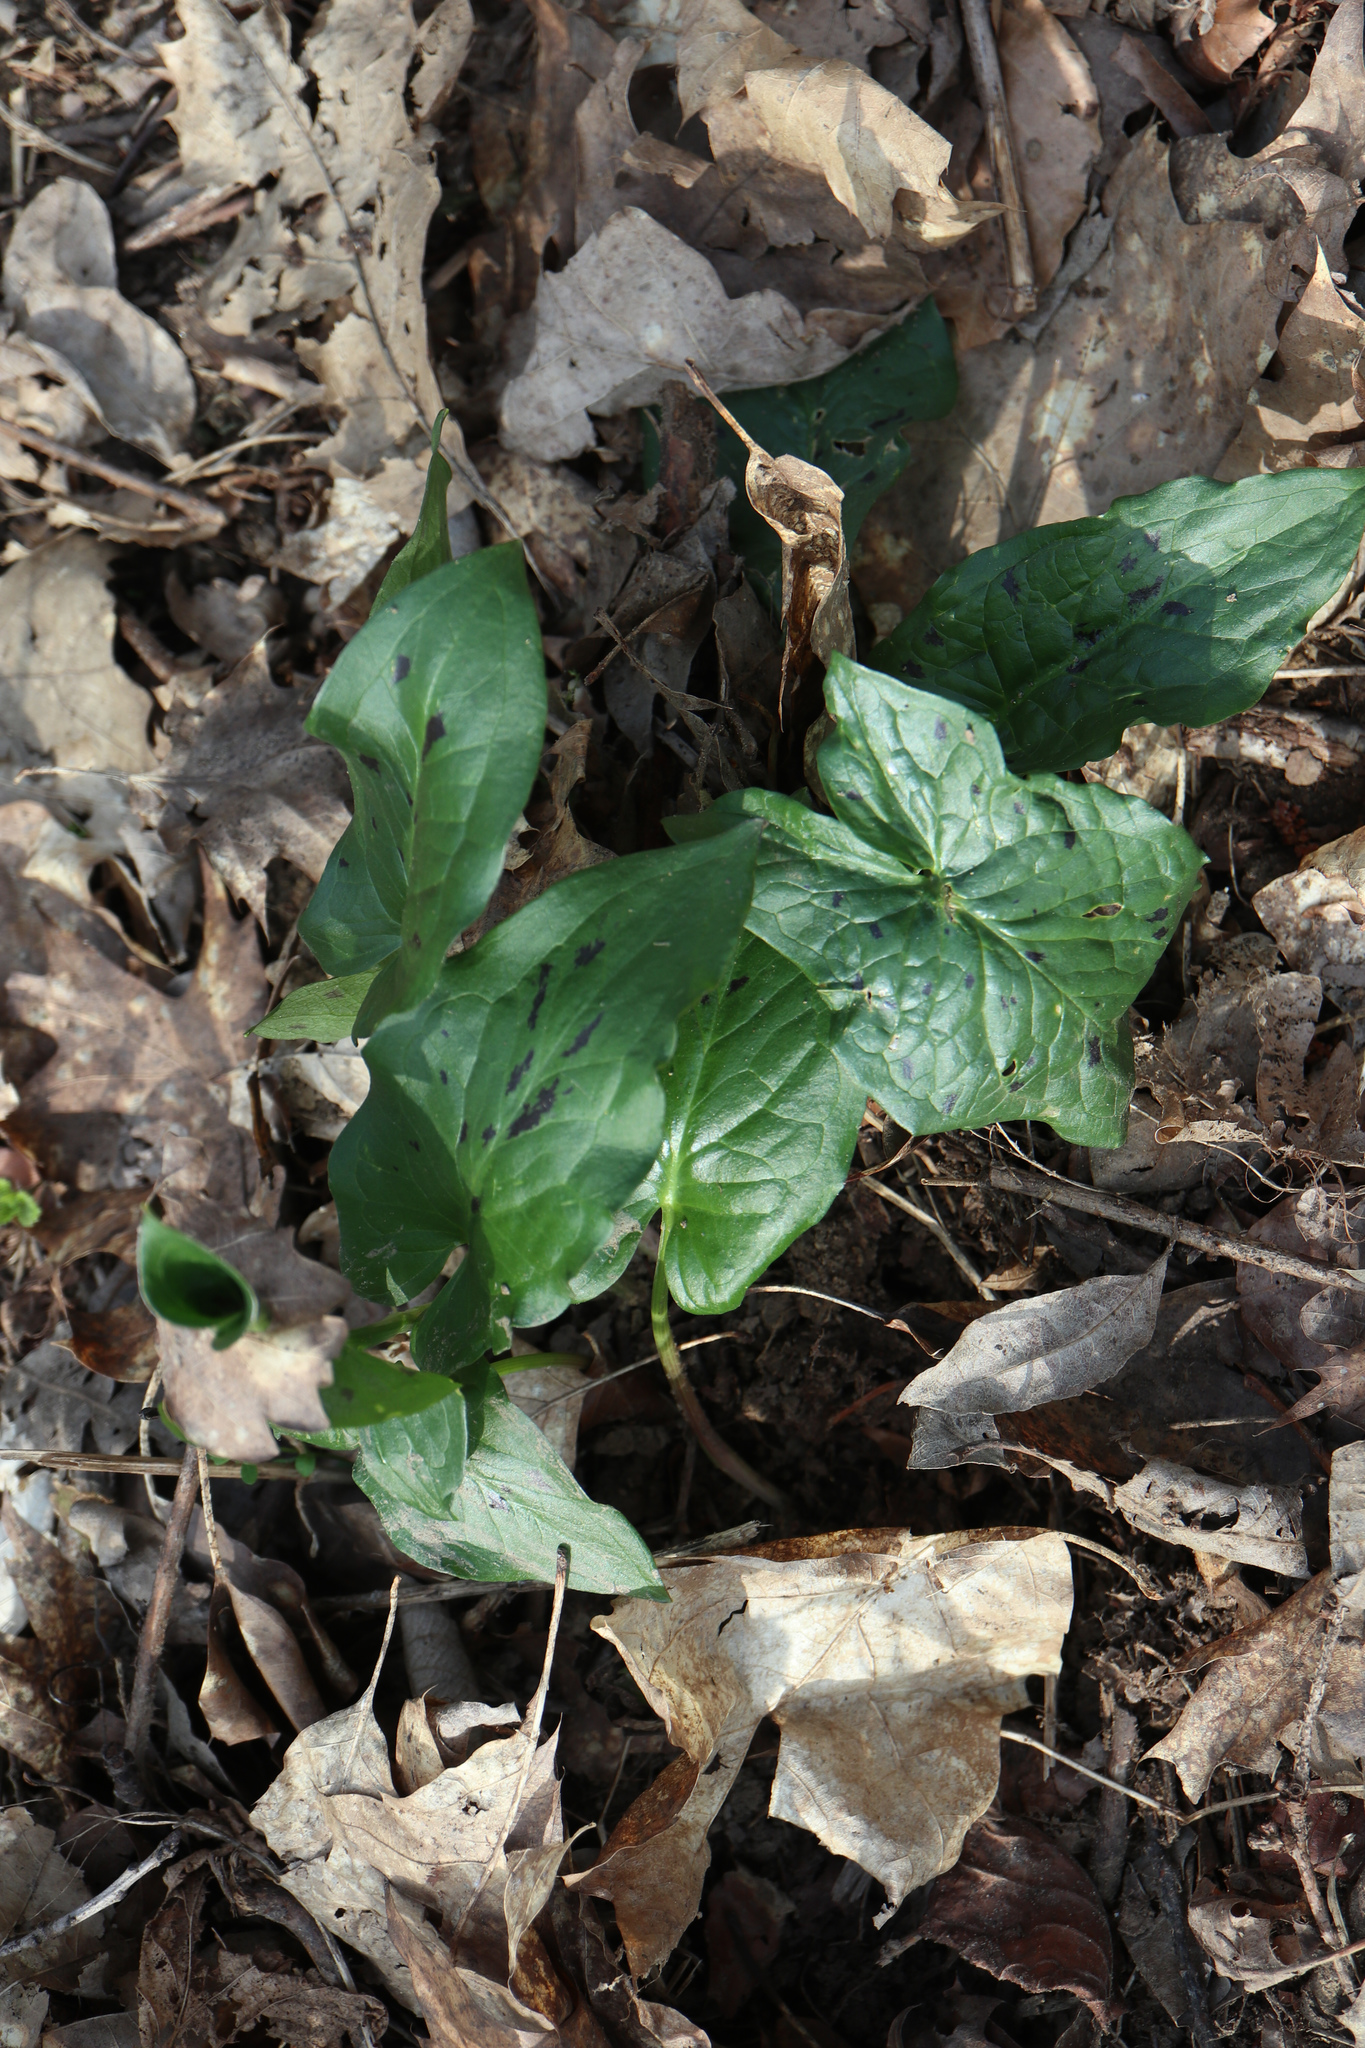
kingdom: Plantae
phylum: Tracheophyta
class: Liliopsida
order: Alismatales
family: Araceae
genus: Arum
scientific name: Arum maculatum
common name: Lords-and-ladies
